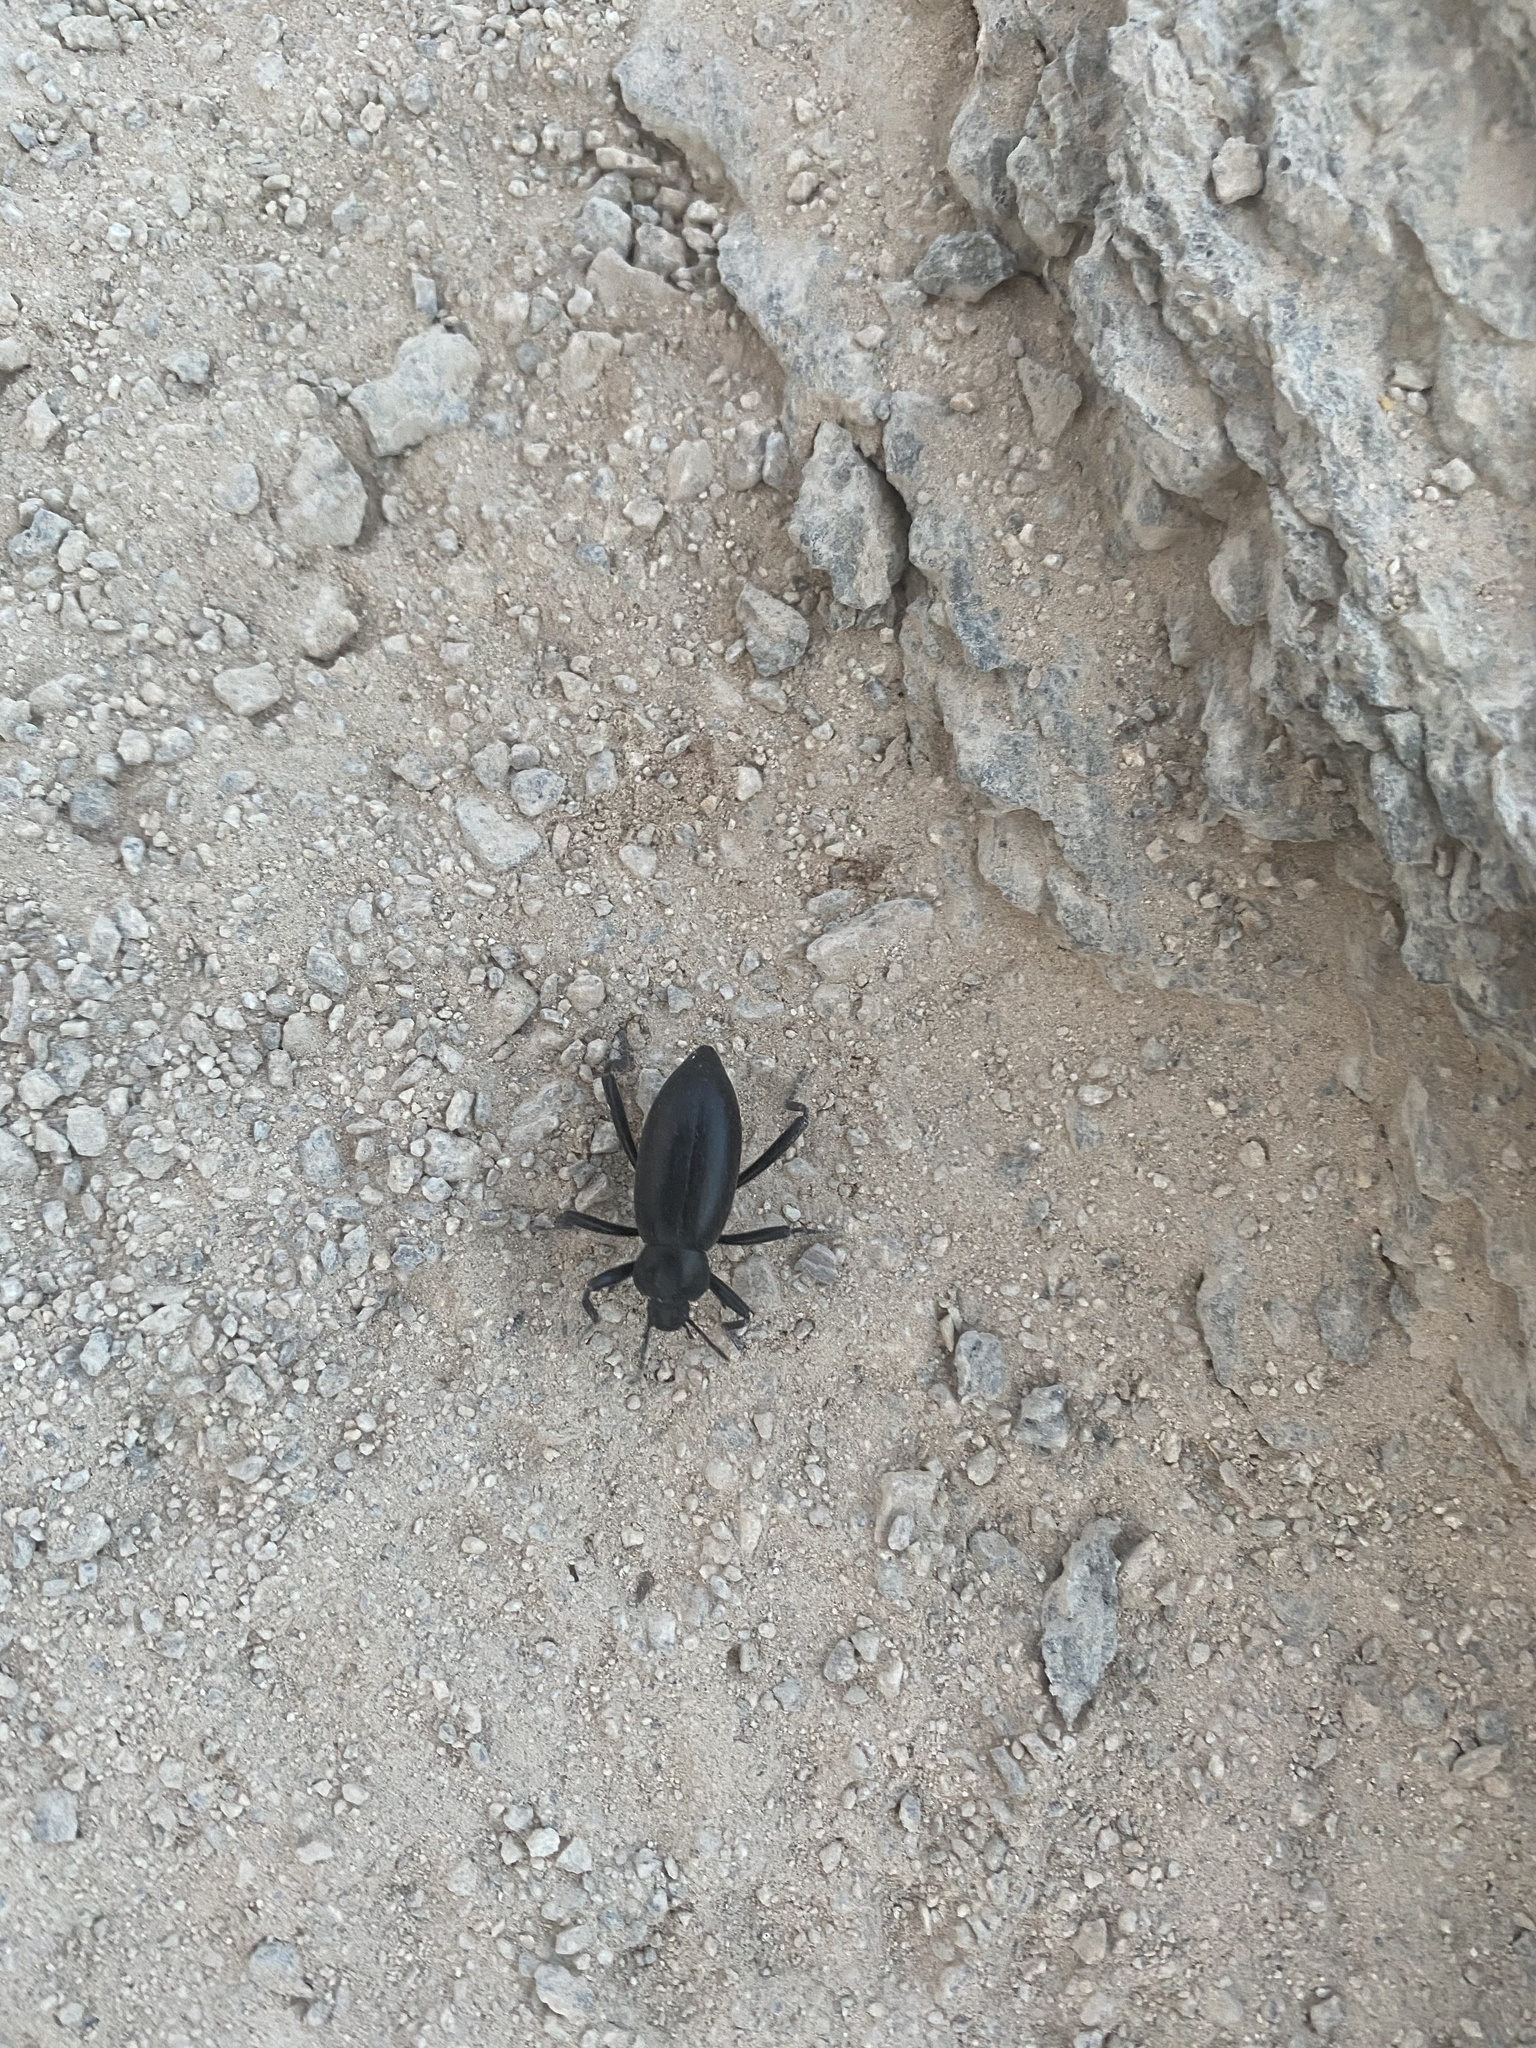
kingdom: Animalia
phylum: Arthropoda
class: Insecta
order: Coleoptera
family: Tenebrionidae
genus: Eleodes
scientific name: Eleodes armata
